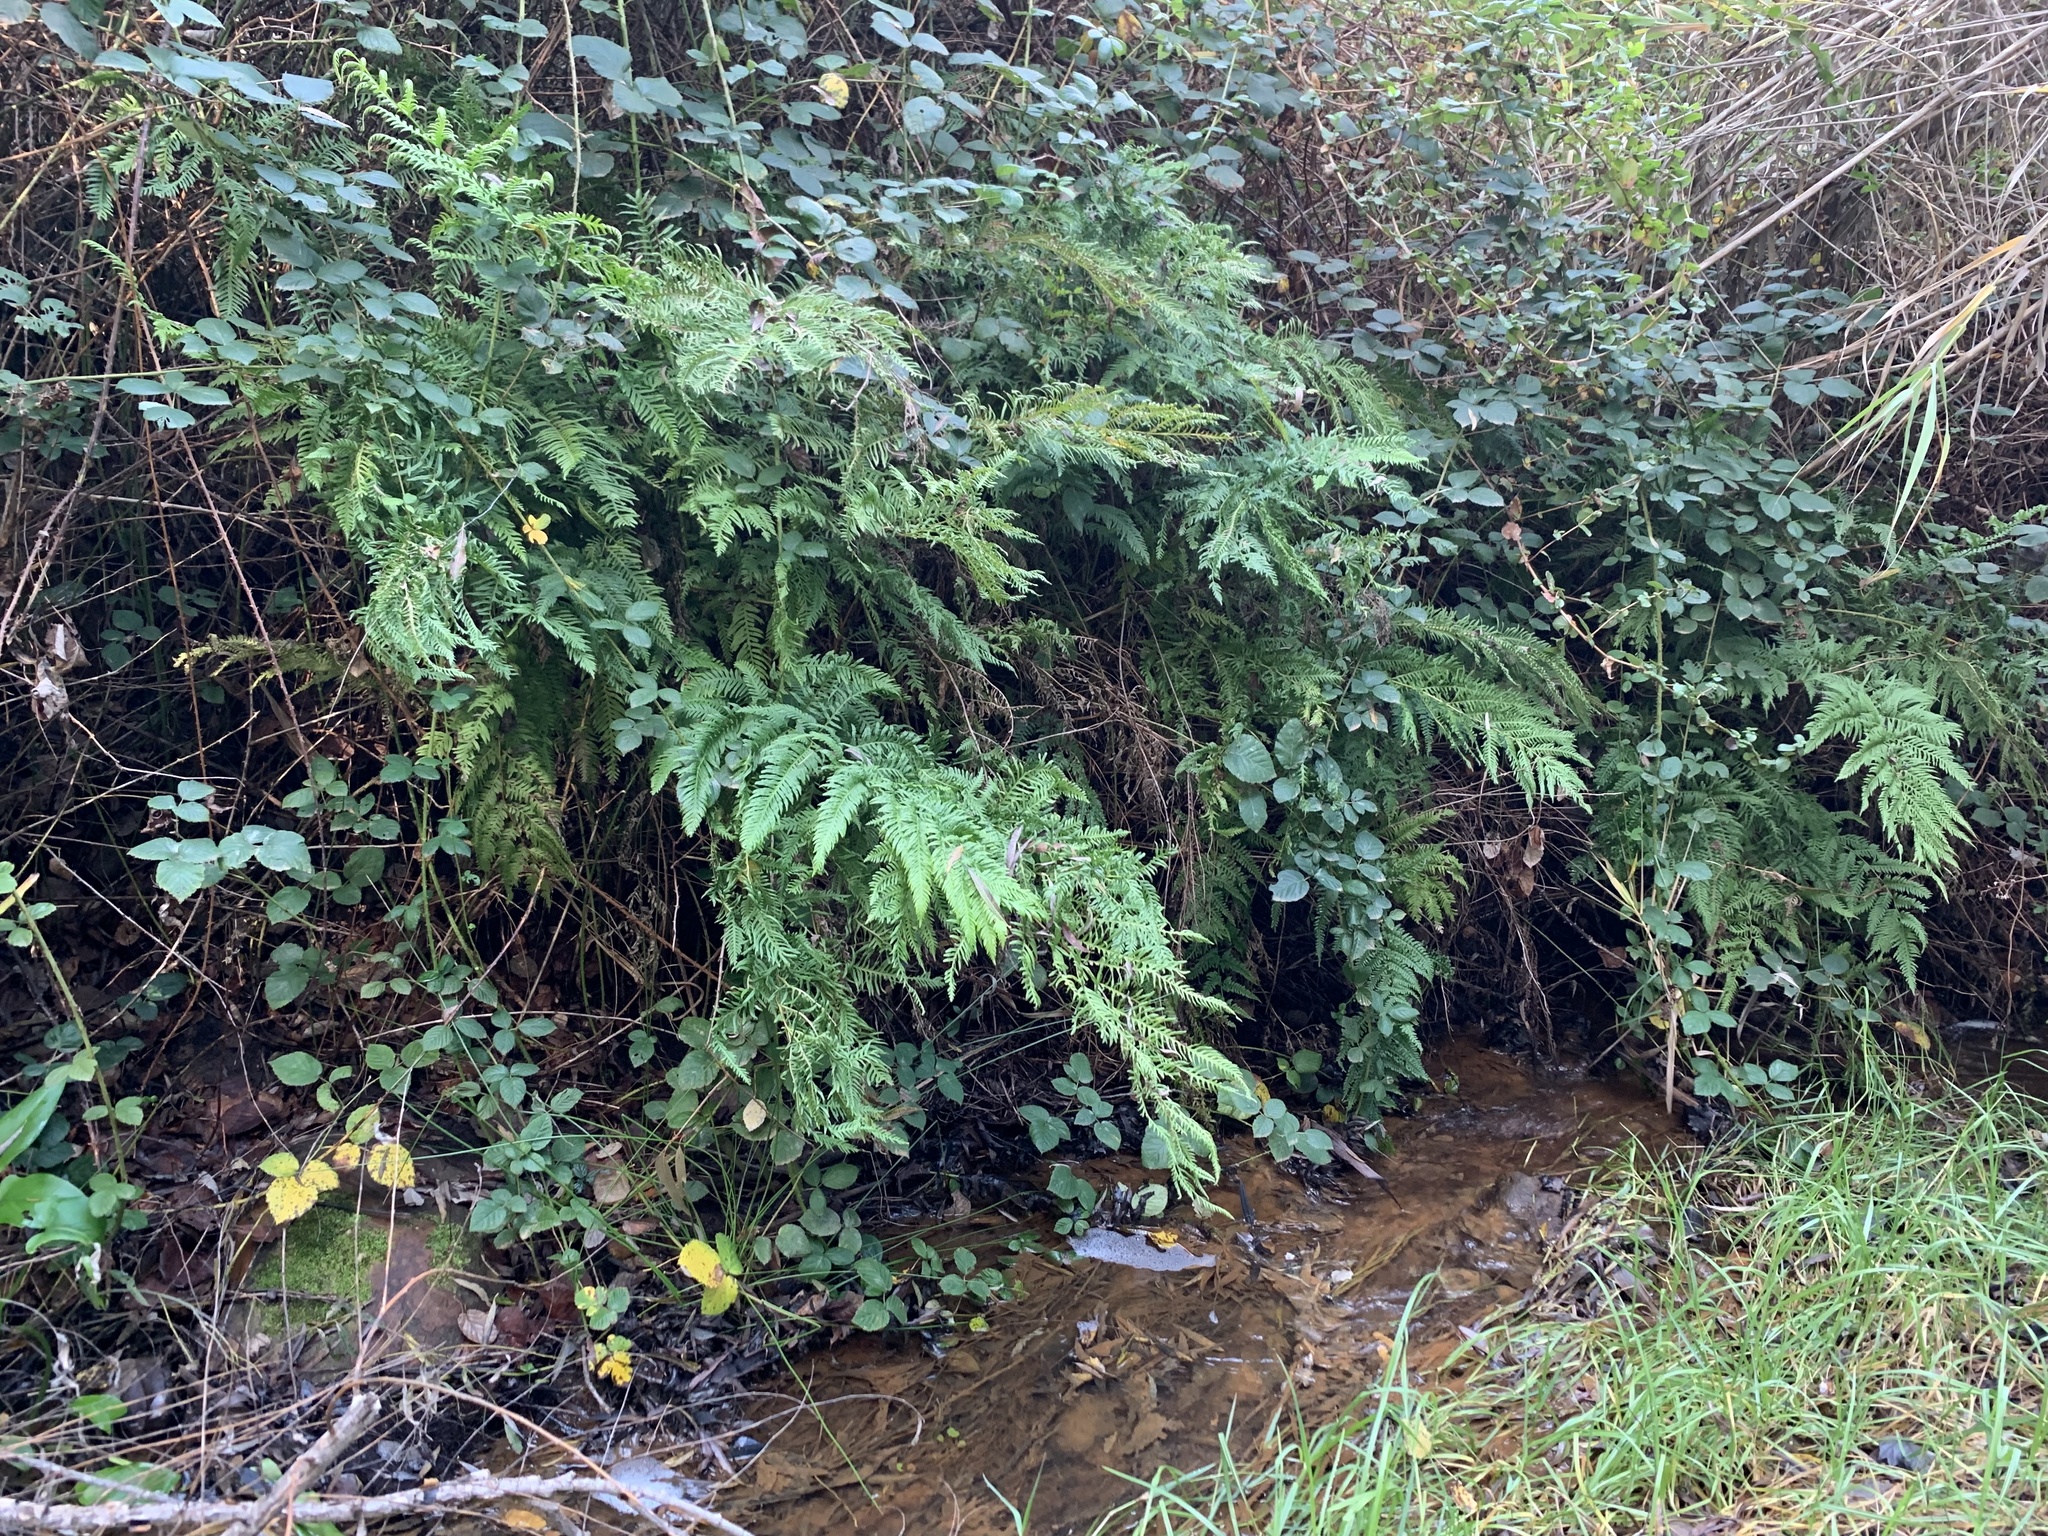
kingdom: Plantae
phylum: Tracheophyta
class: Polypodiopsida
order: Polypodiales
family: Pteridaceae
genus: Pteris
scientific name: Pteris tremula
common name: Australian brake
